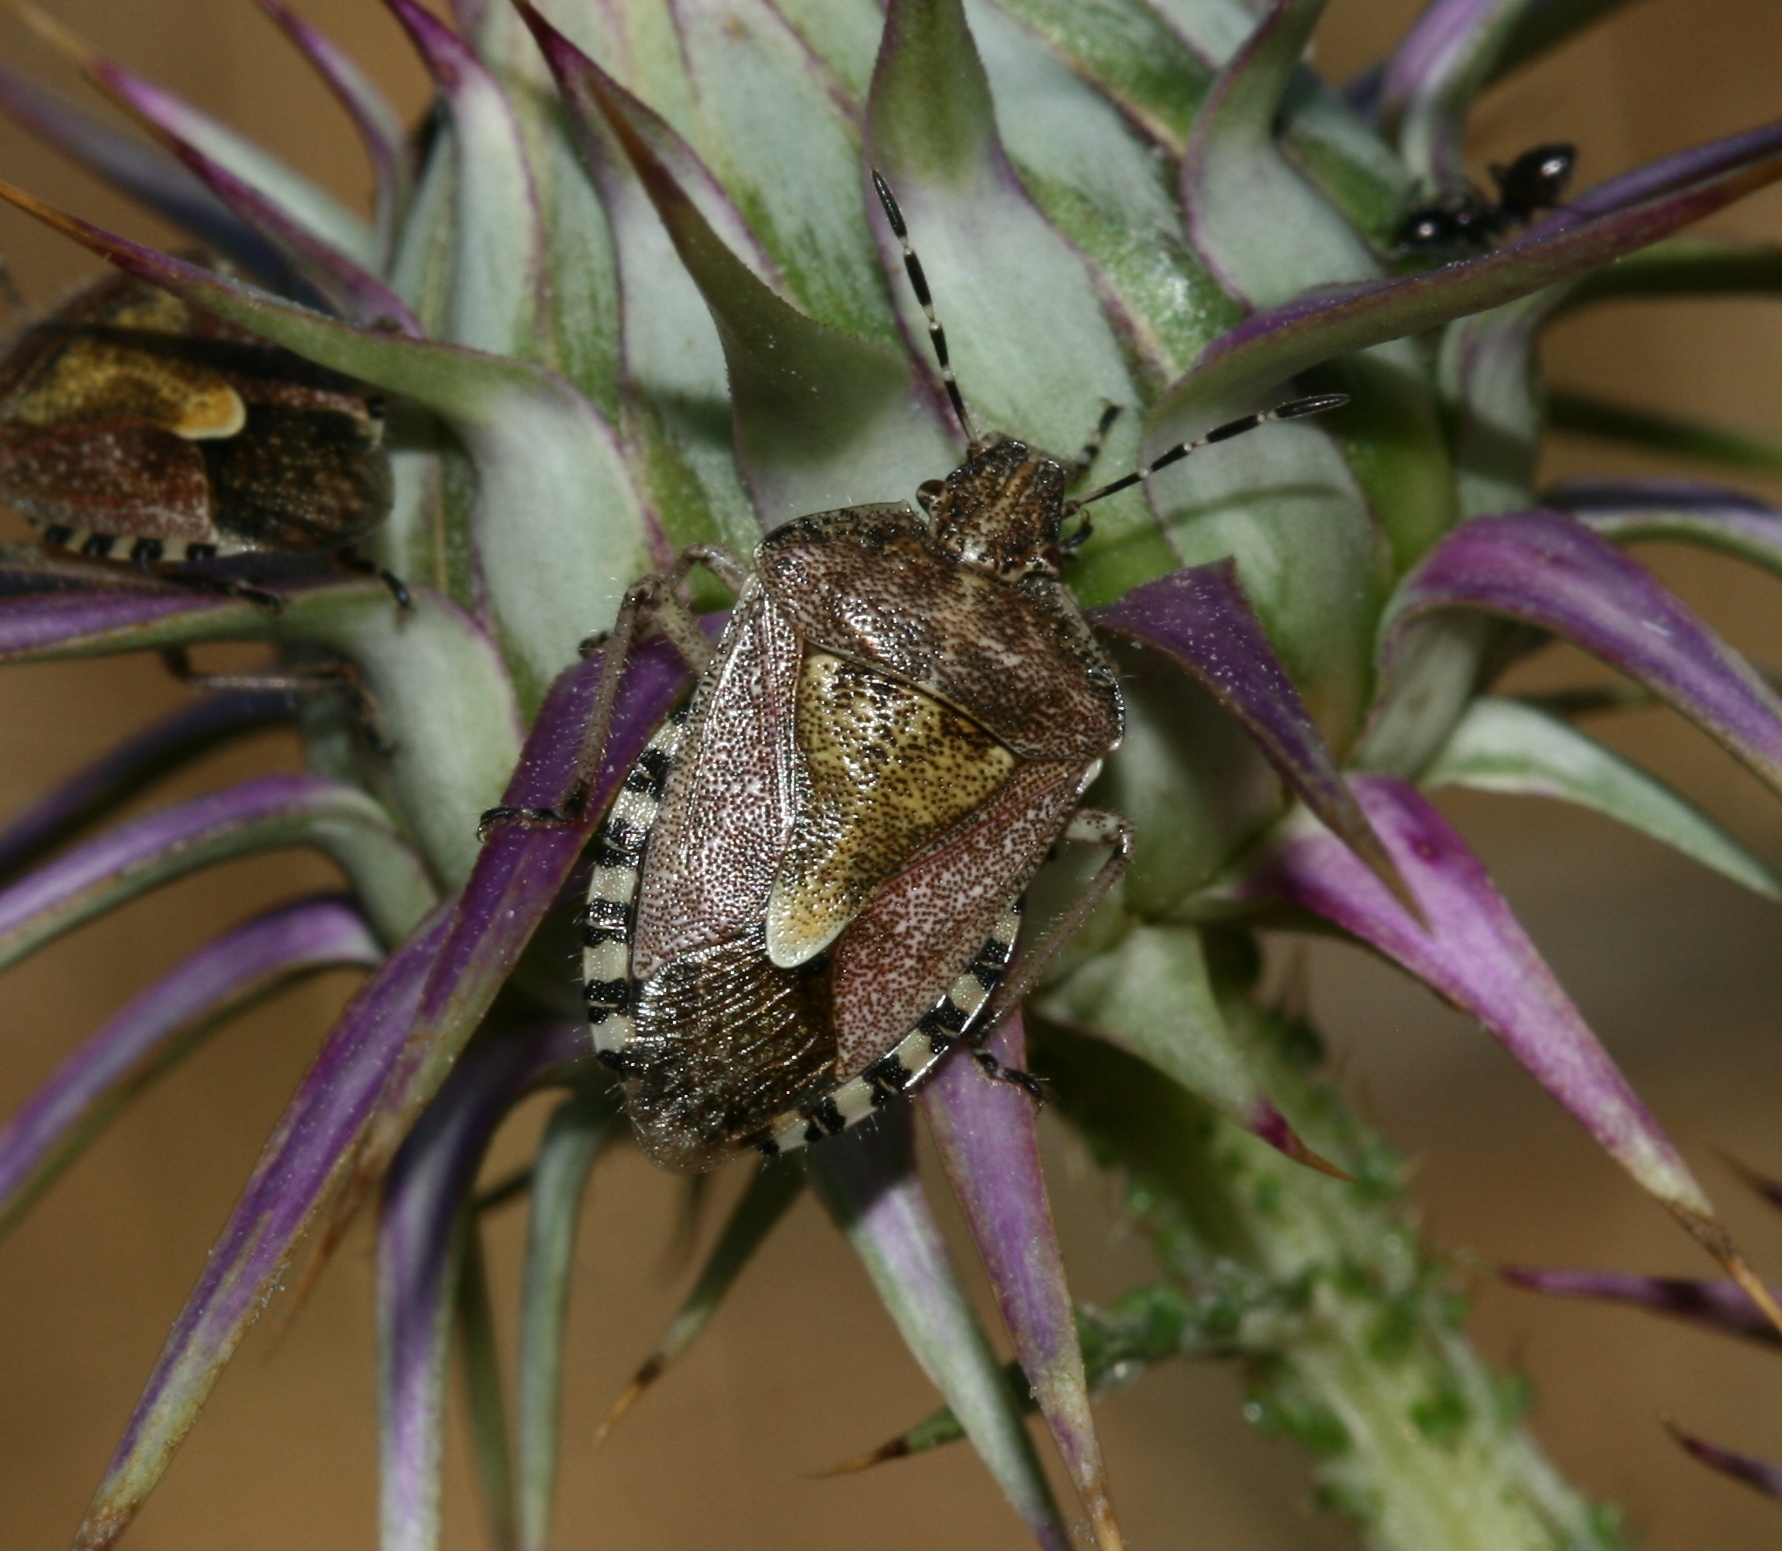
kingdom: Animalia
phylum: Arthropoda
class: Insecta
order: Hemiptera
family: Pentatomidae
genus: Dolycoris
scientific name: Dolycoris baccarum
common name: Sloe bug
